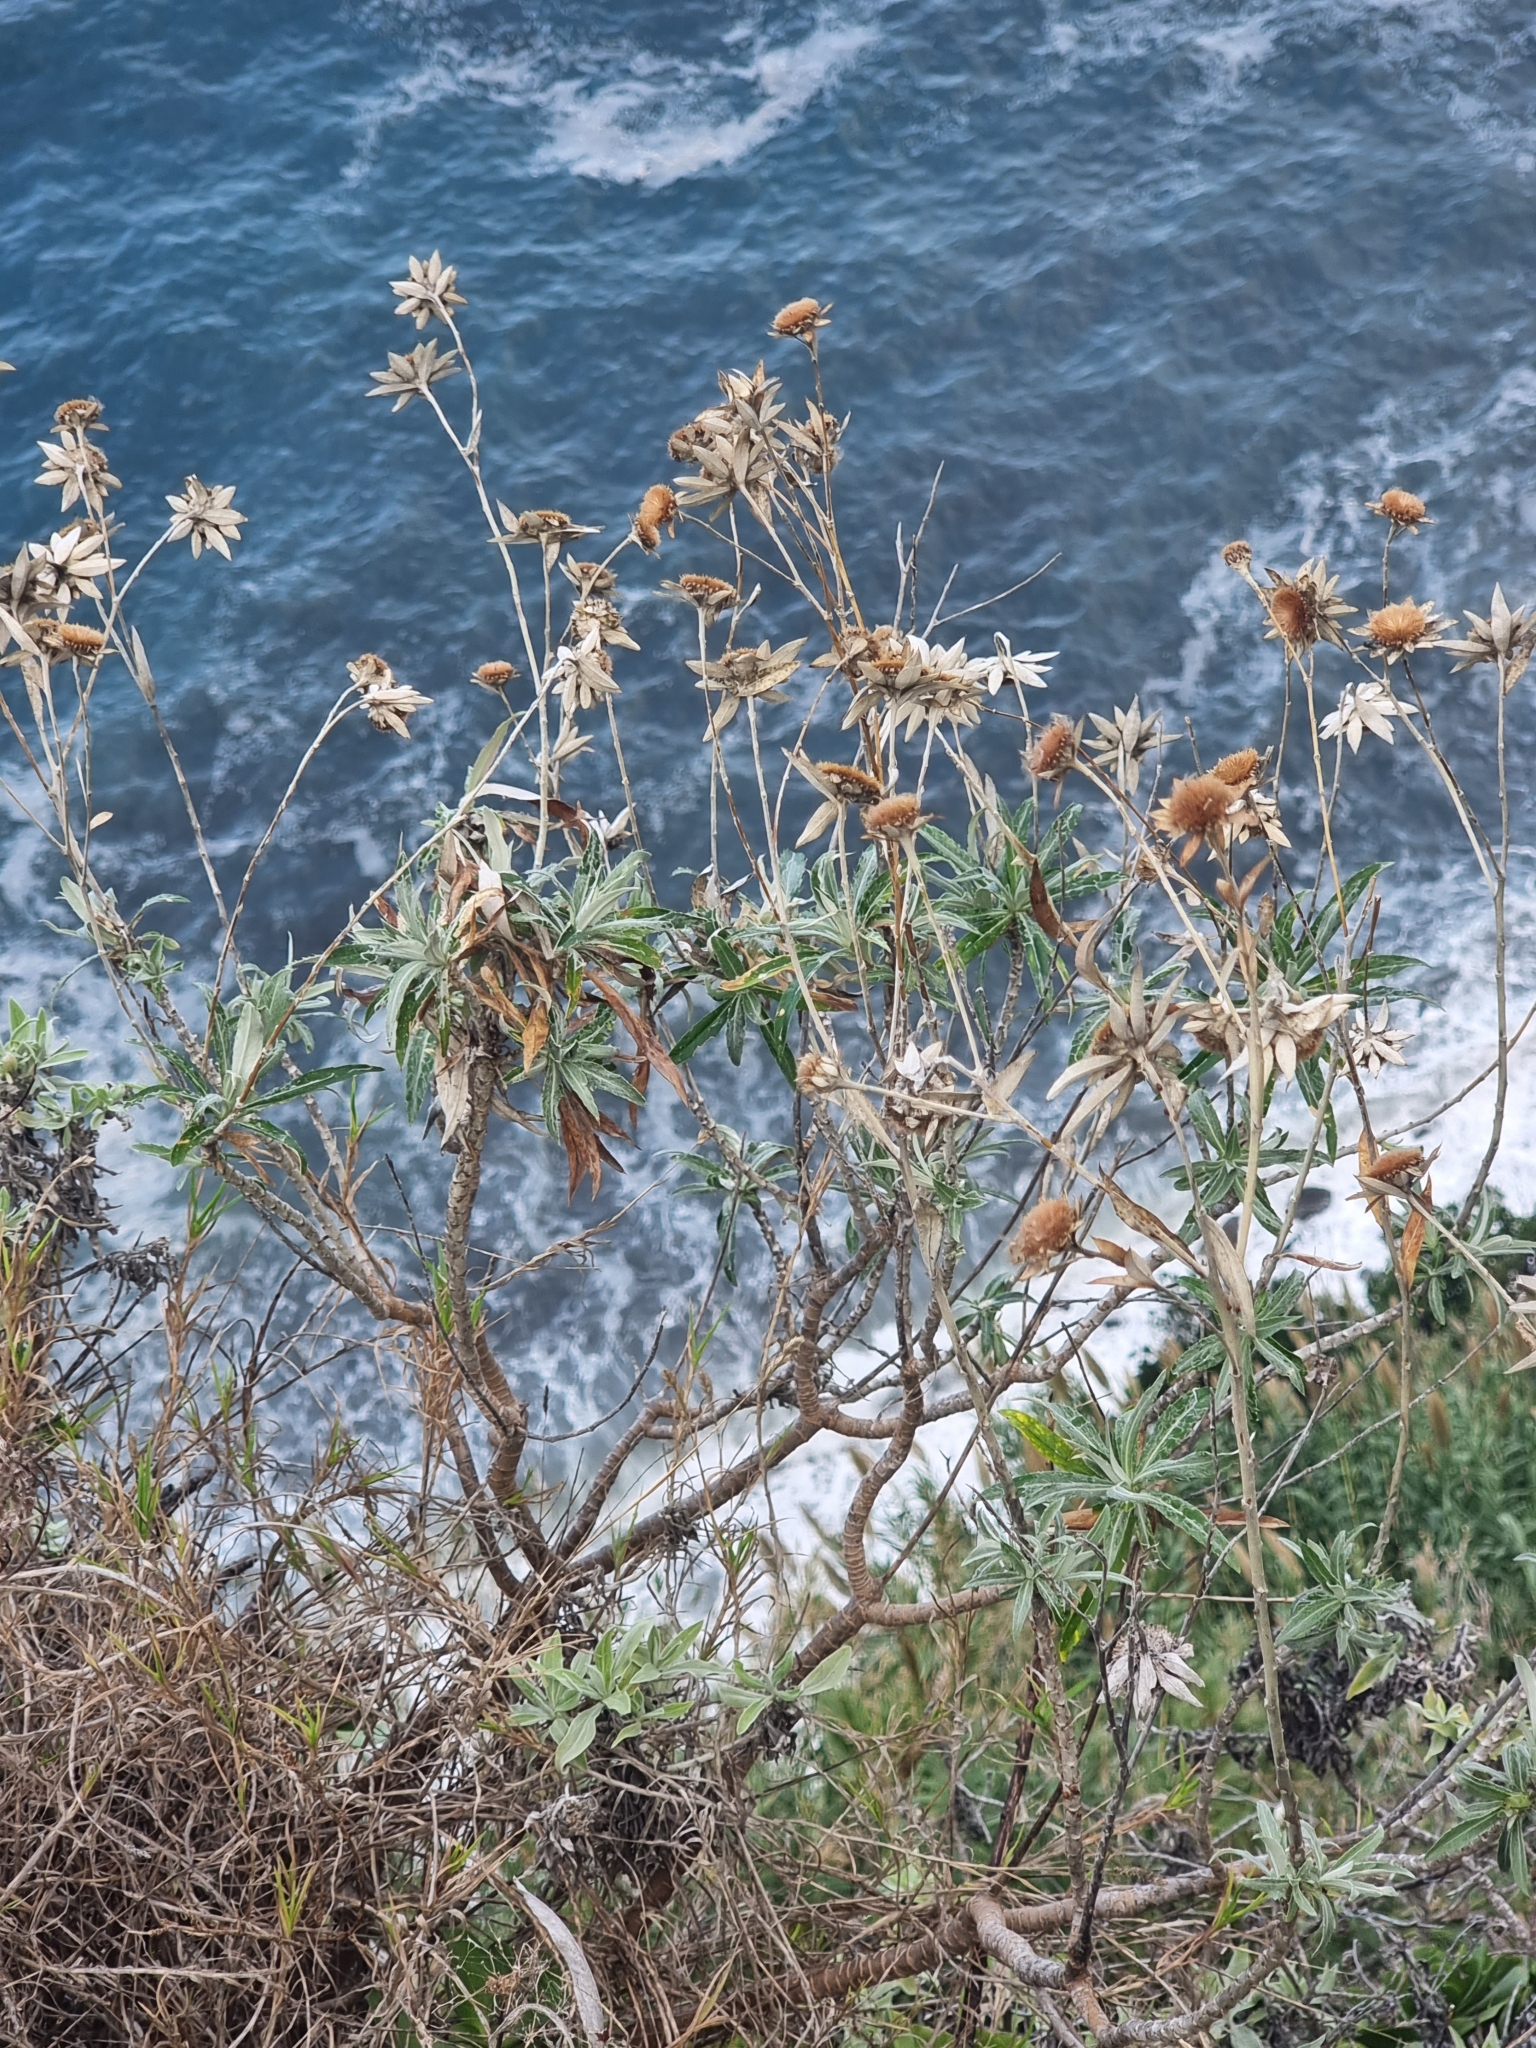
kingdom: Plantae
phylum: Tracheophyta
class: Magnoliopsida
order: Asterales
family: Asteraceae
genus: Carlina
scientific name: Carlina salicifolia
